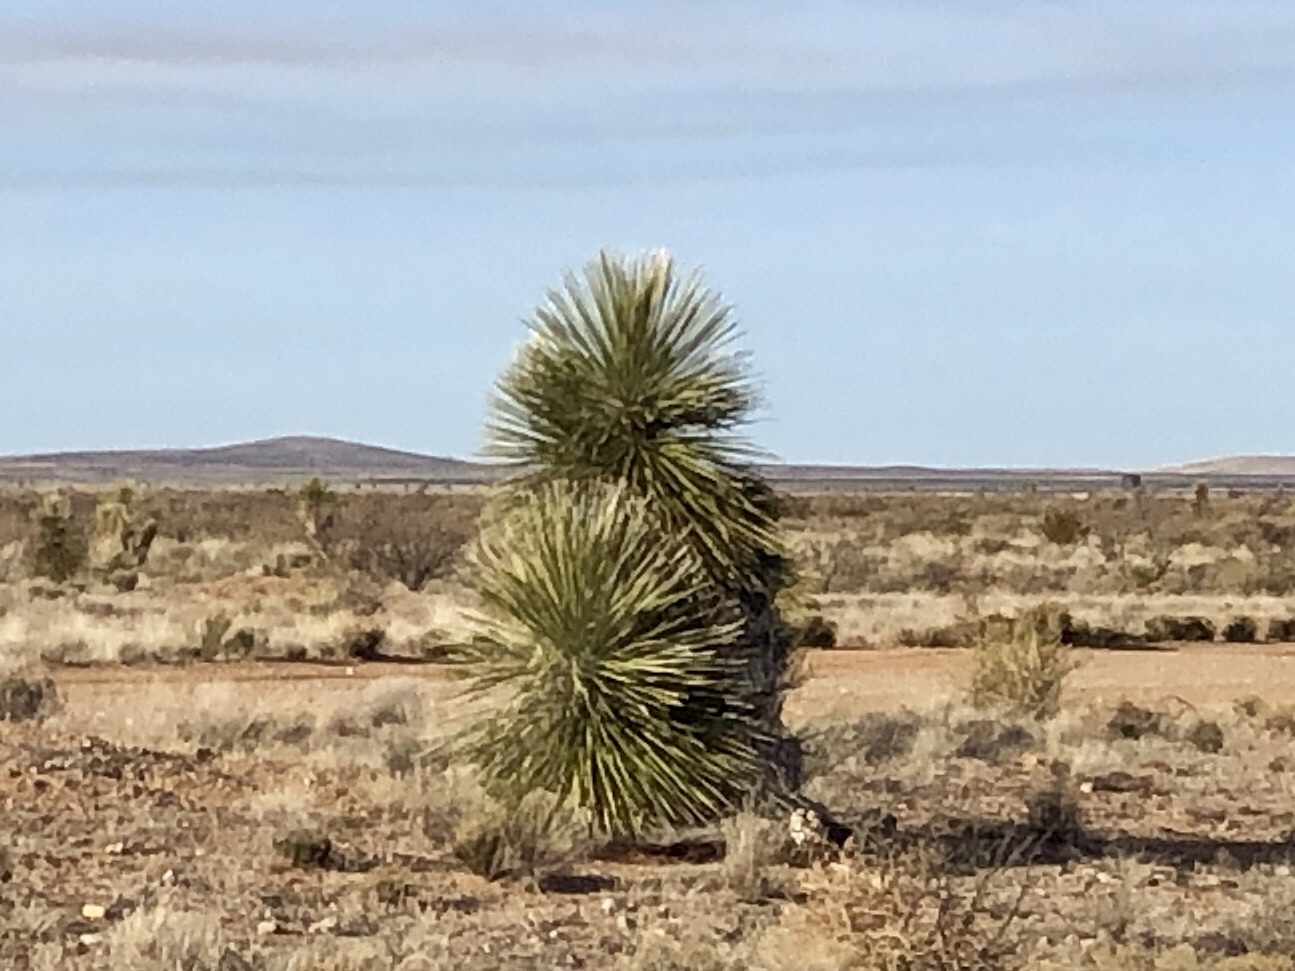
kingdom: Plantae
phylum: Tracheophyta
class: Liliopsida
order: Asparagales
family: Asparagaceae
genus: Yucca
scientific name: Yucca elata
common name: Palmella
